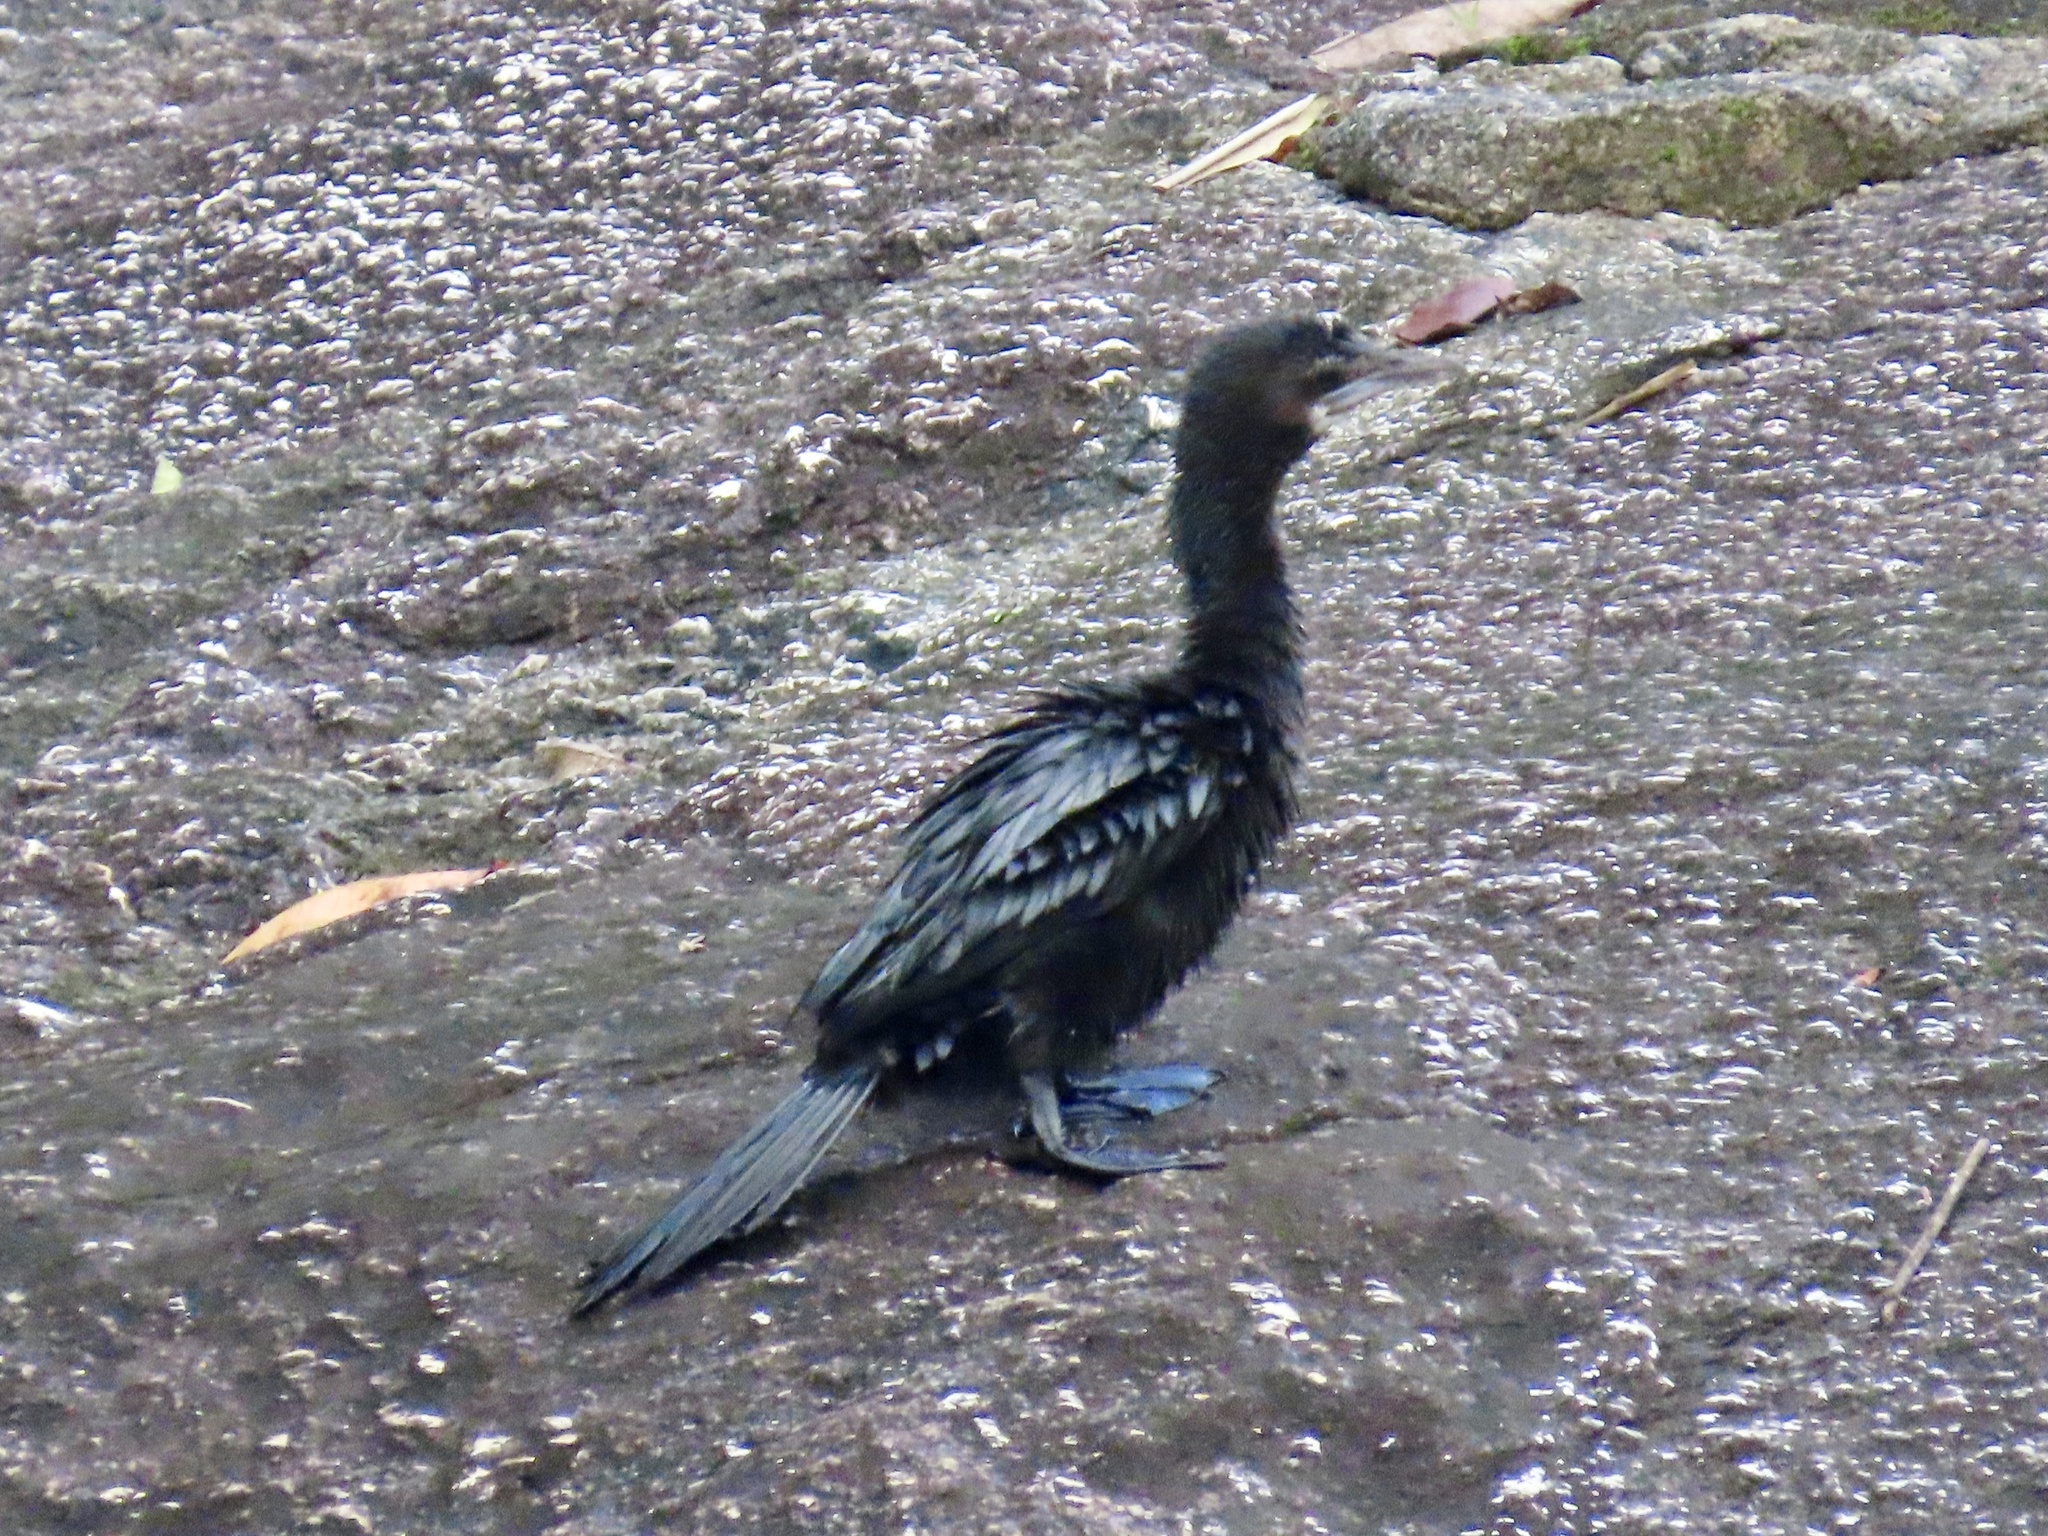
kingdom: Animalia
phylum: Chordata
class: Aves
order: Suliformes
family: Phalacrocoracidae
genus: Microcarbo
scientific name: Microcarbo niger
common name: Little cormorant
